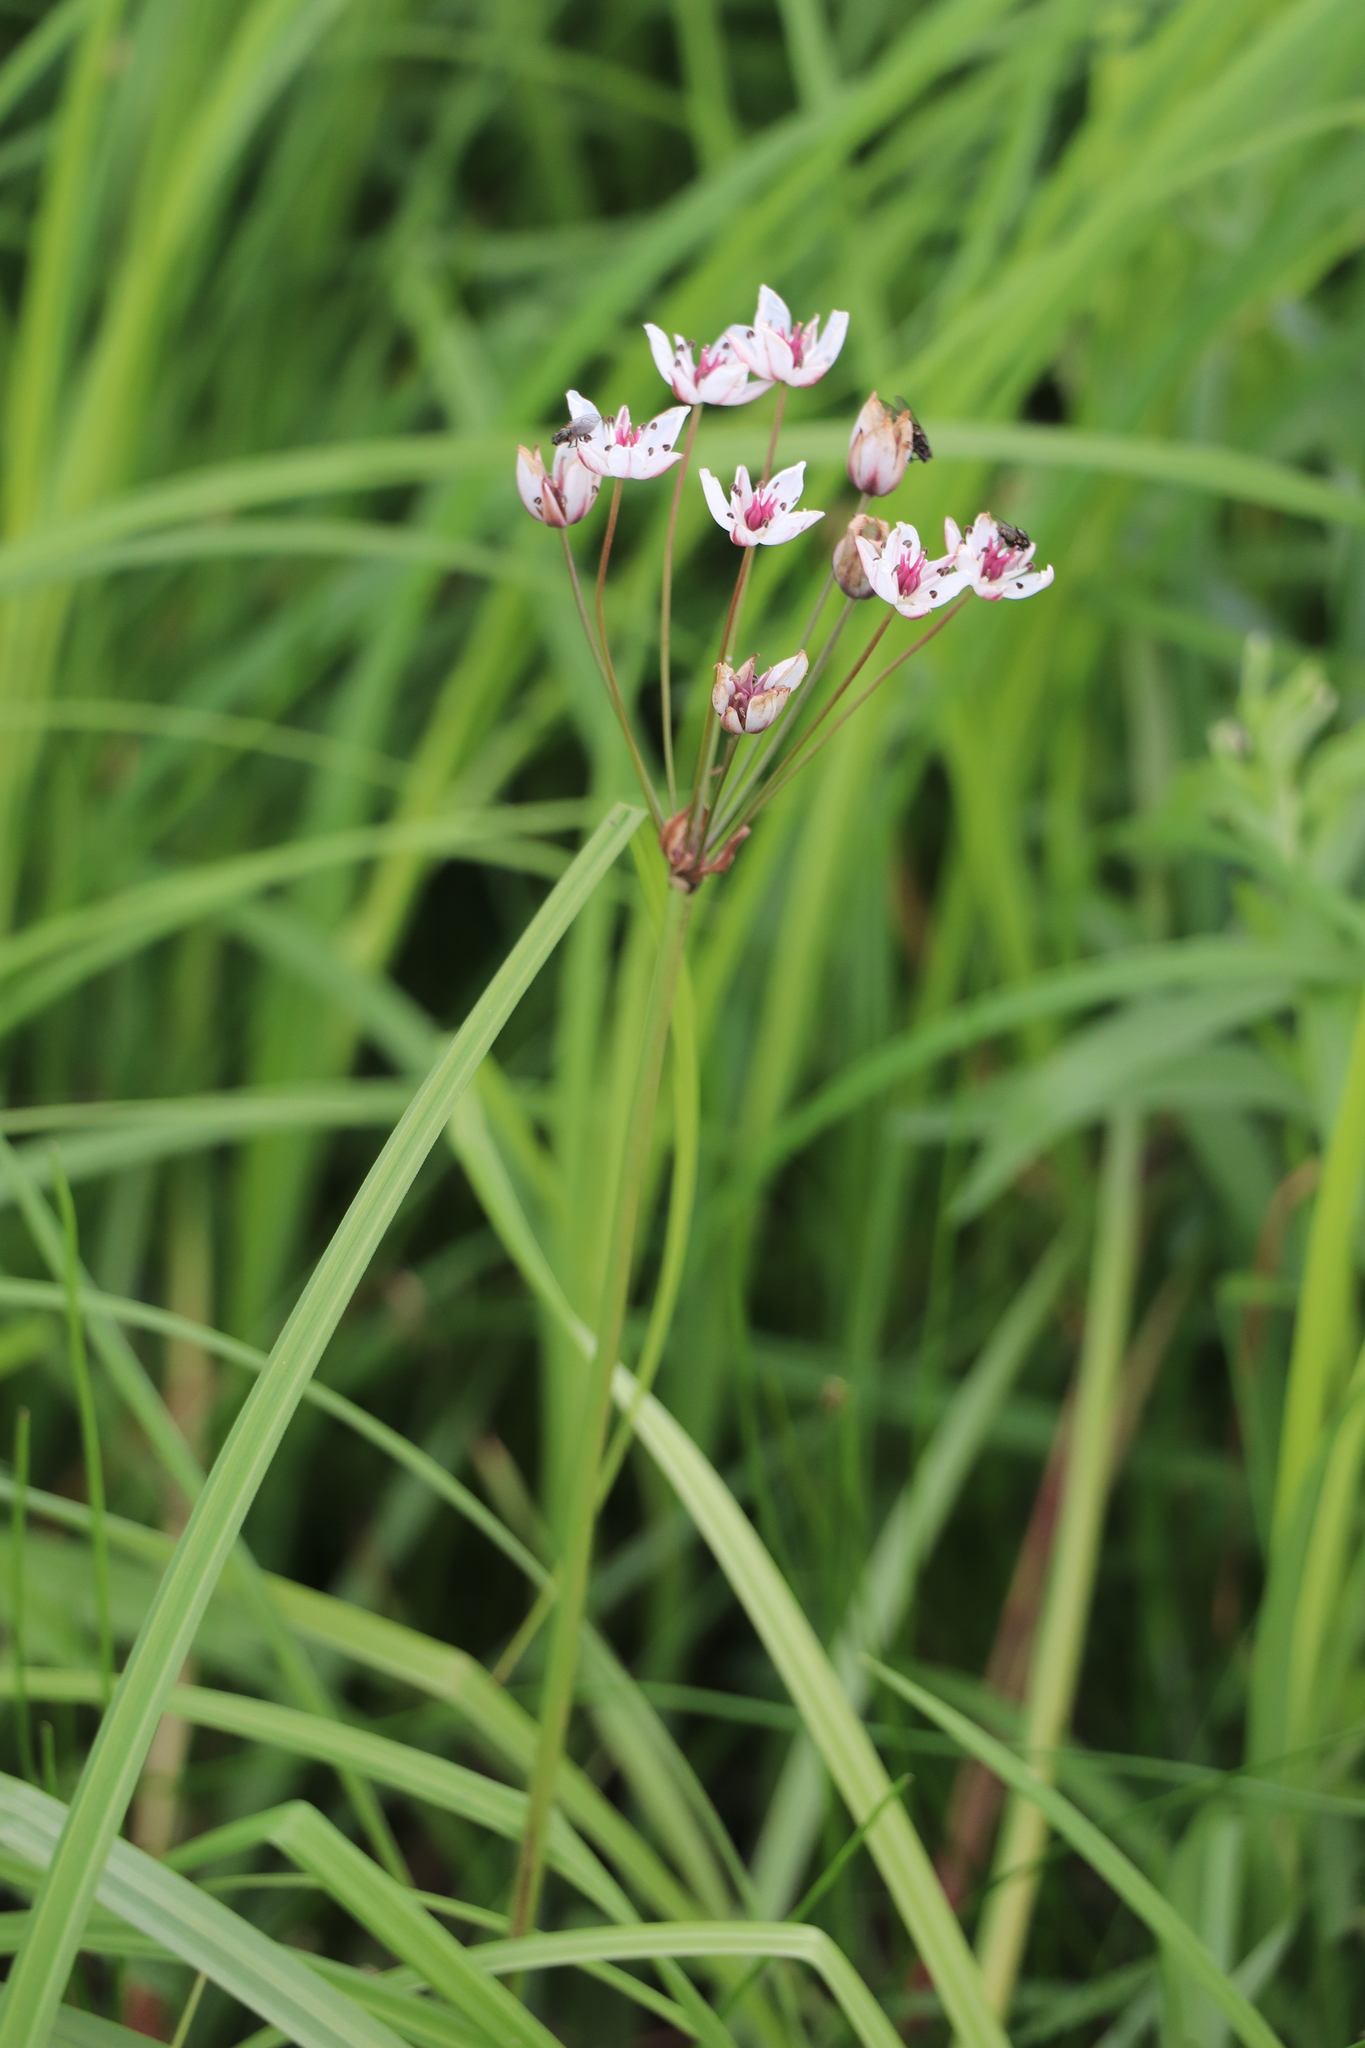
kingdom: Plantae
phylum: Tracheophyta
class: Liliopsida
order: Alismatales
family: Butomaceae
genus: Butomus
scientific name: Butomus umbellatus
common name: Flowering-rush
